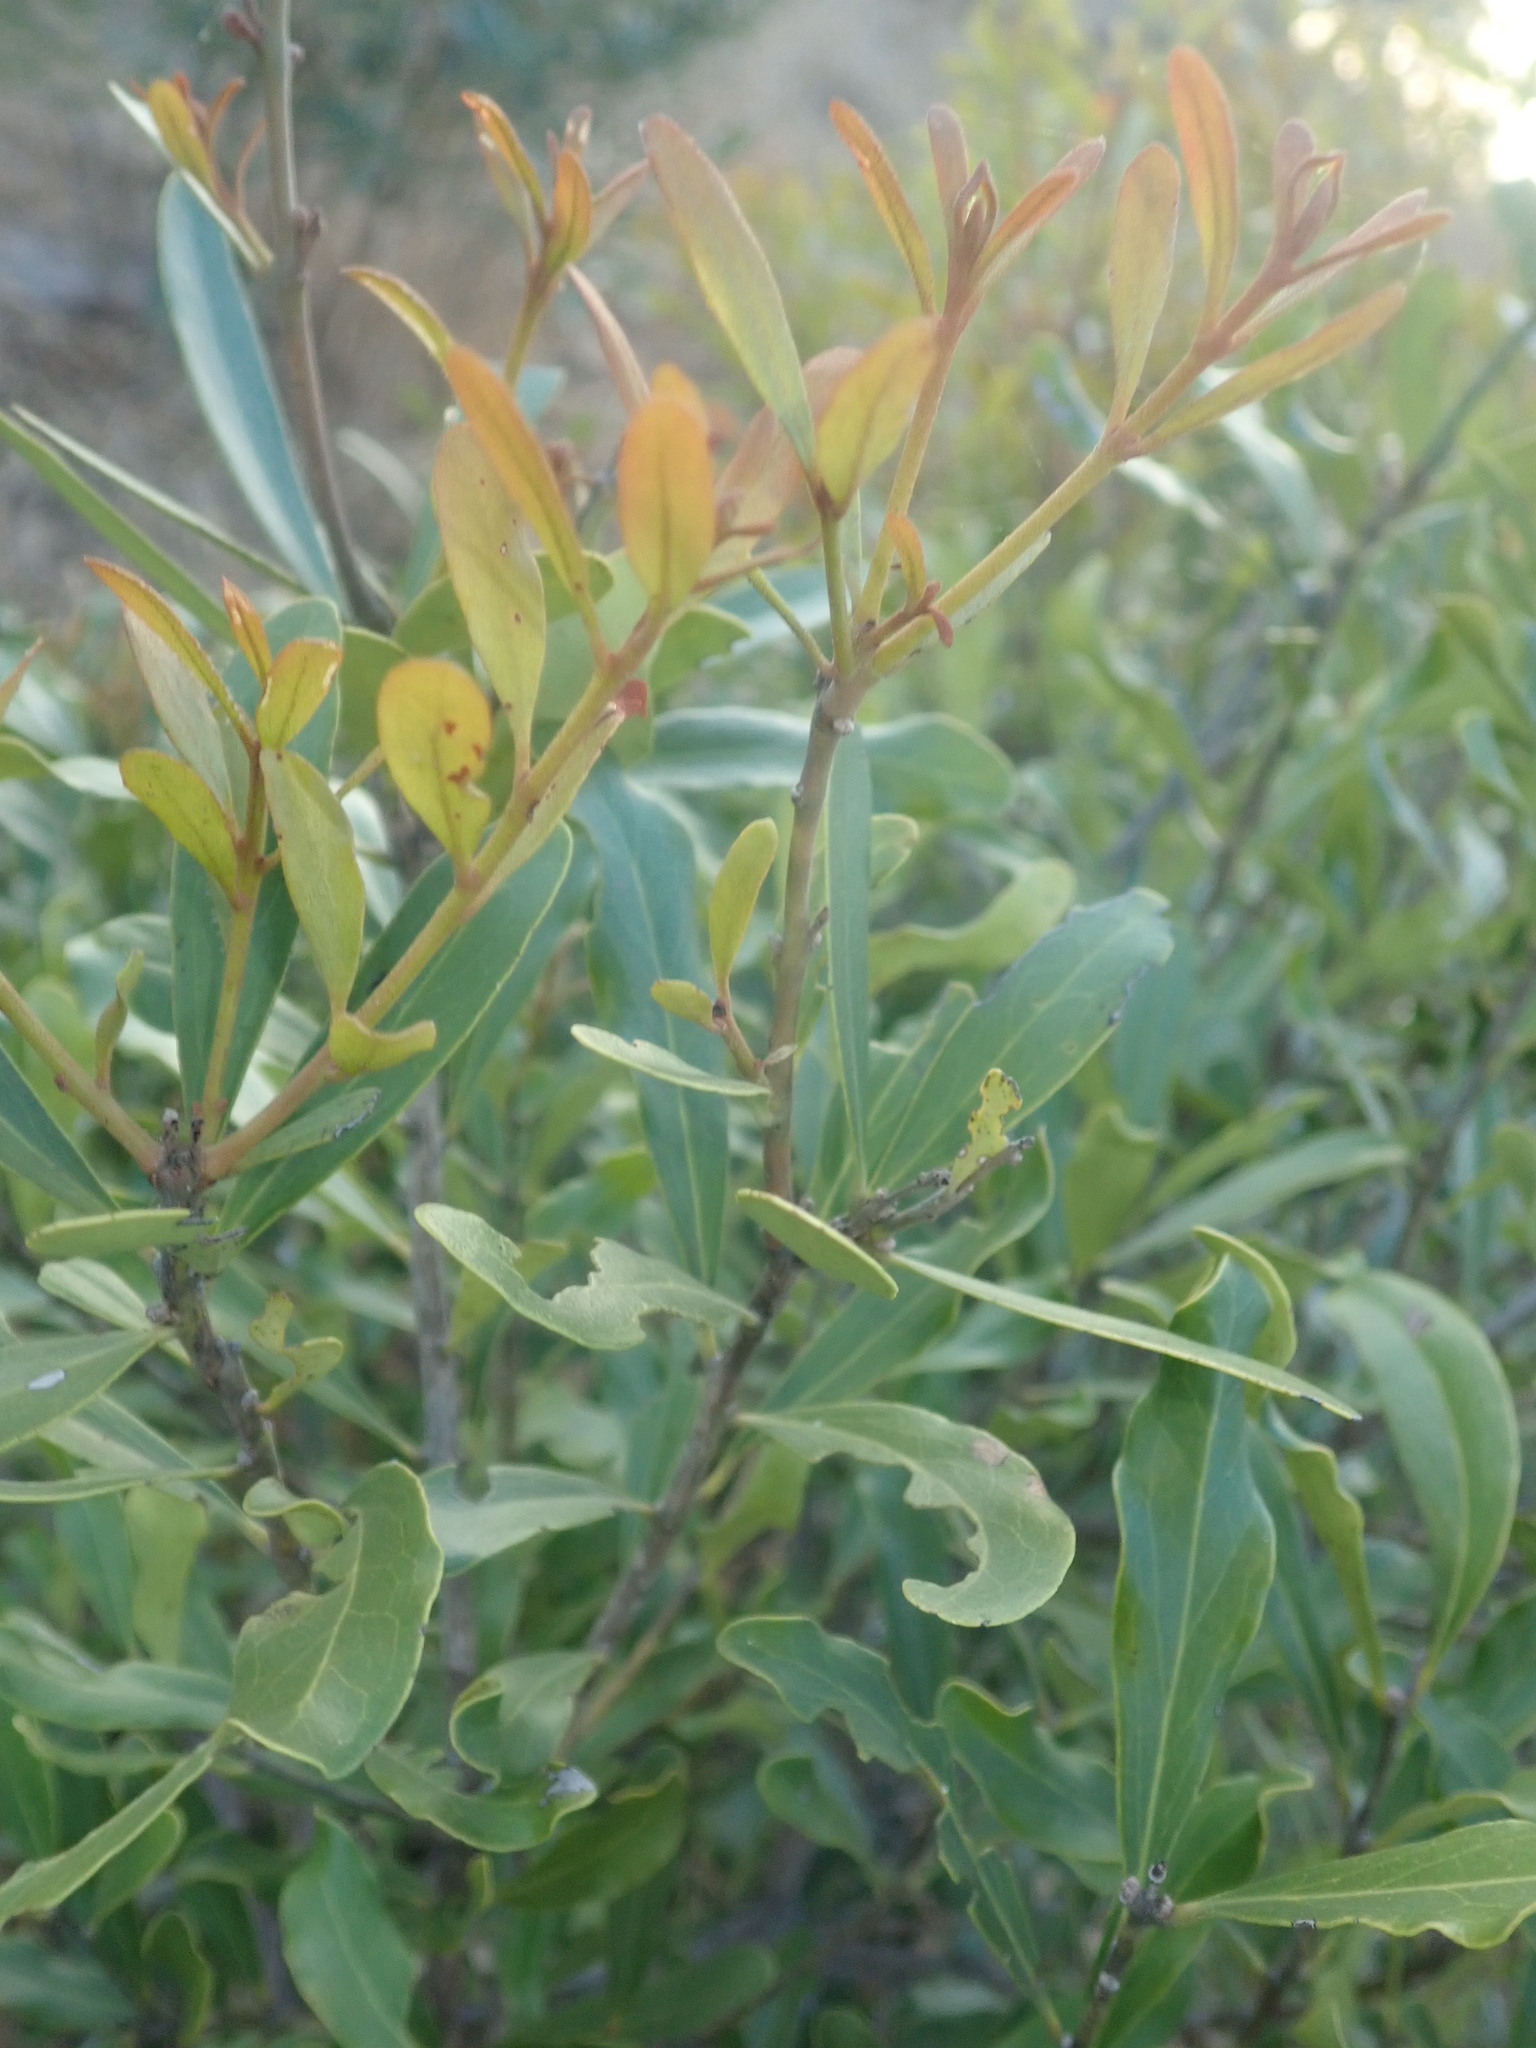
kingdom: Plantae
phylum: Tracheophyta
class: Magnoliopsida
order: Ericales
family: Ebenaceae
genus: Euclea
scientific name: Euclea divinorum
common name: Diamond-leaved euclea
